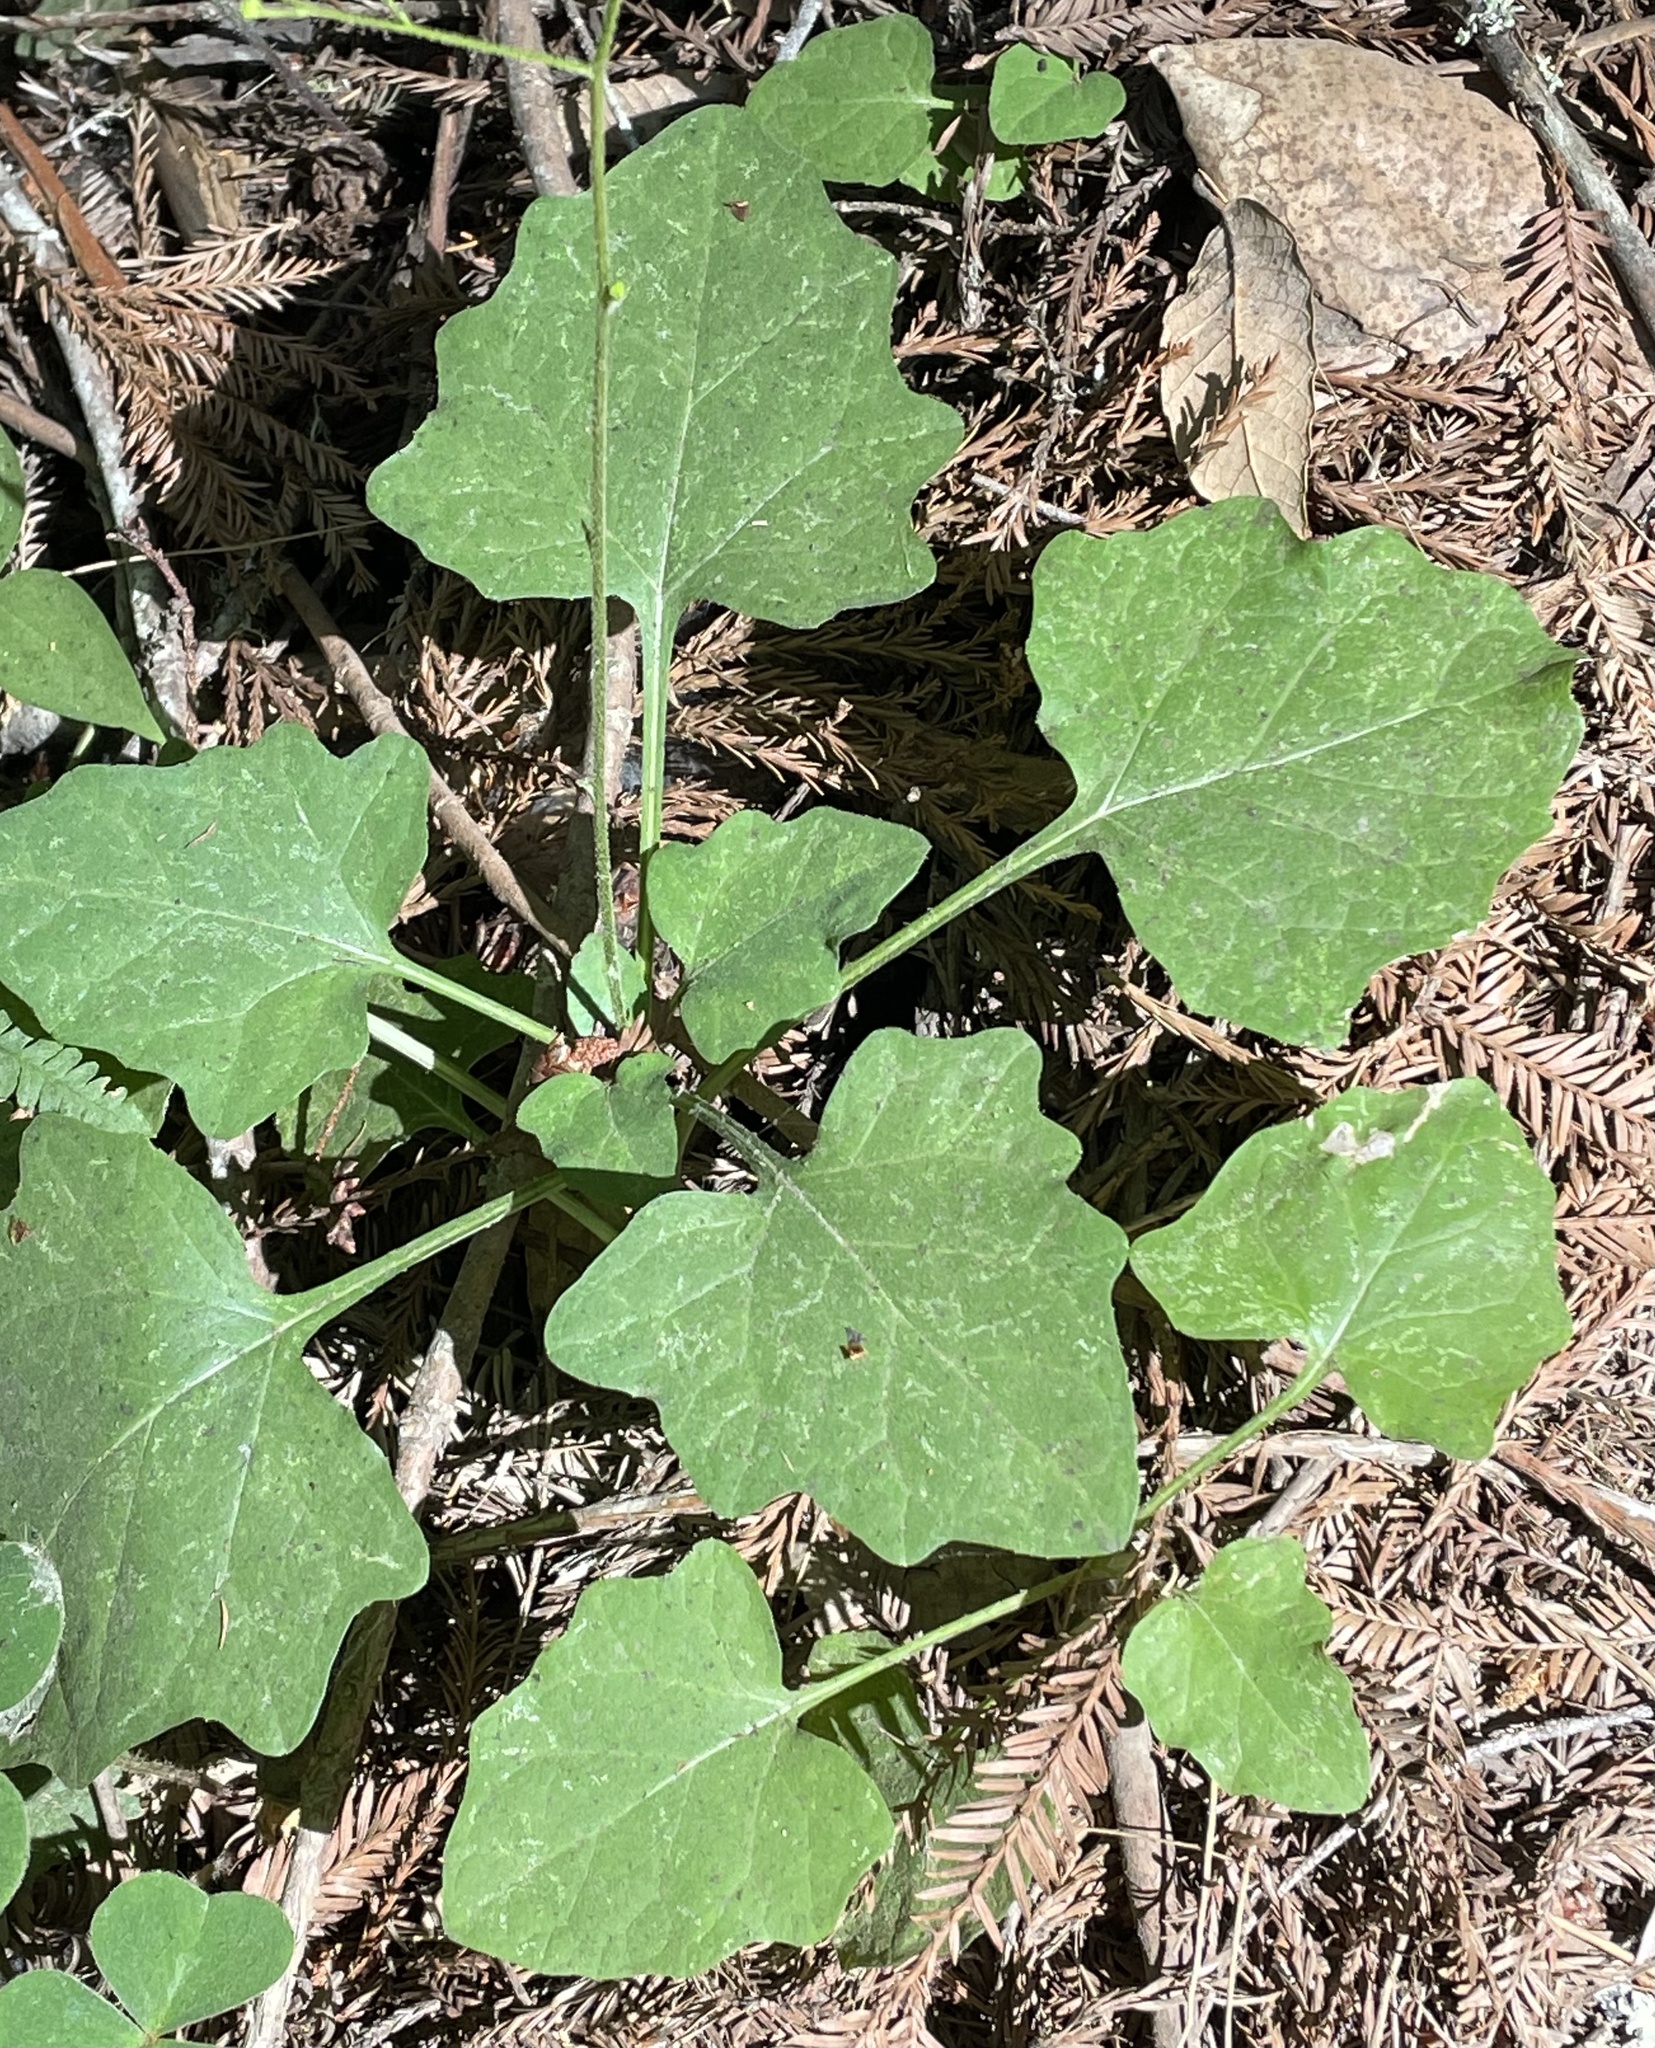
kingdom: Plantae
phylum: Tracheophyta
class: Magnoliopsida
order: Asterales
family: Asteraceae
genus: Adenocaulon
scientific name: Adenocaulon bicolor
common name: Trailplant
